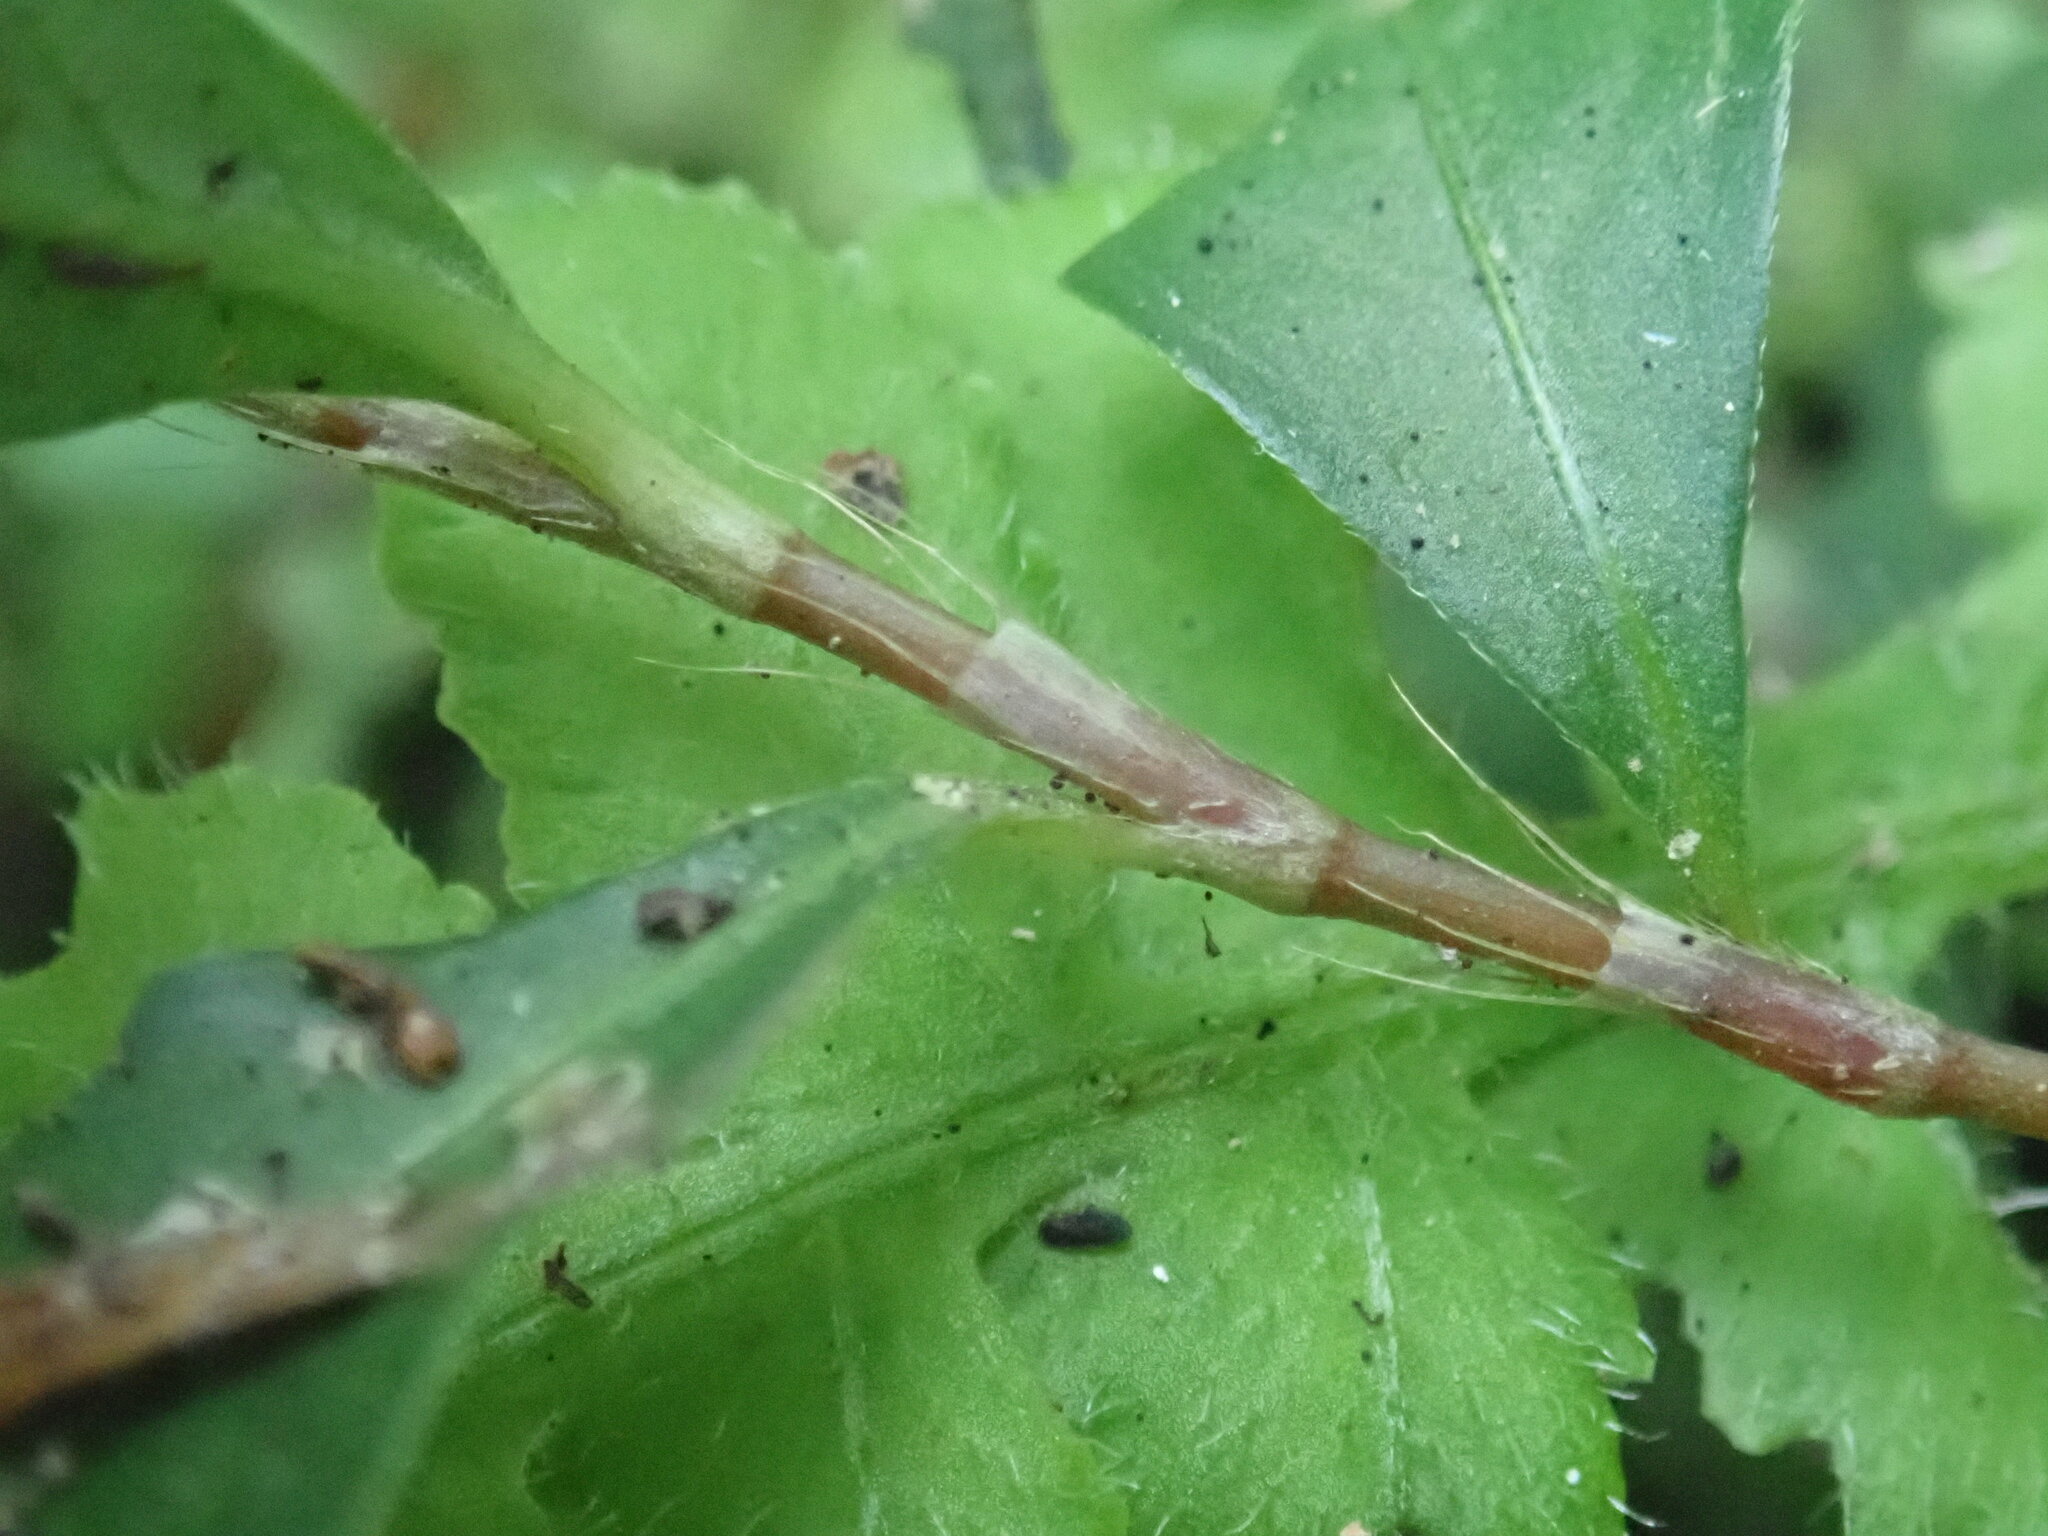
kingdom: Plantae
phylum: Tracheophyta
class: Magnoliopsida
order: Caryophyllales
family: Polygonaceae
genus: Persicaria
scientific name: Persicaria posumbu
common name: Oriental lady's thumb
